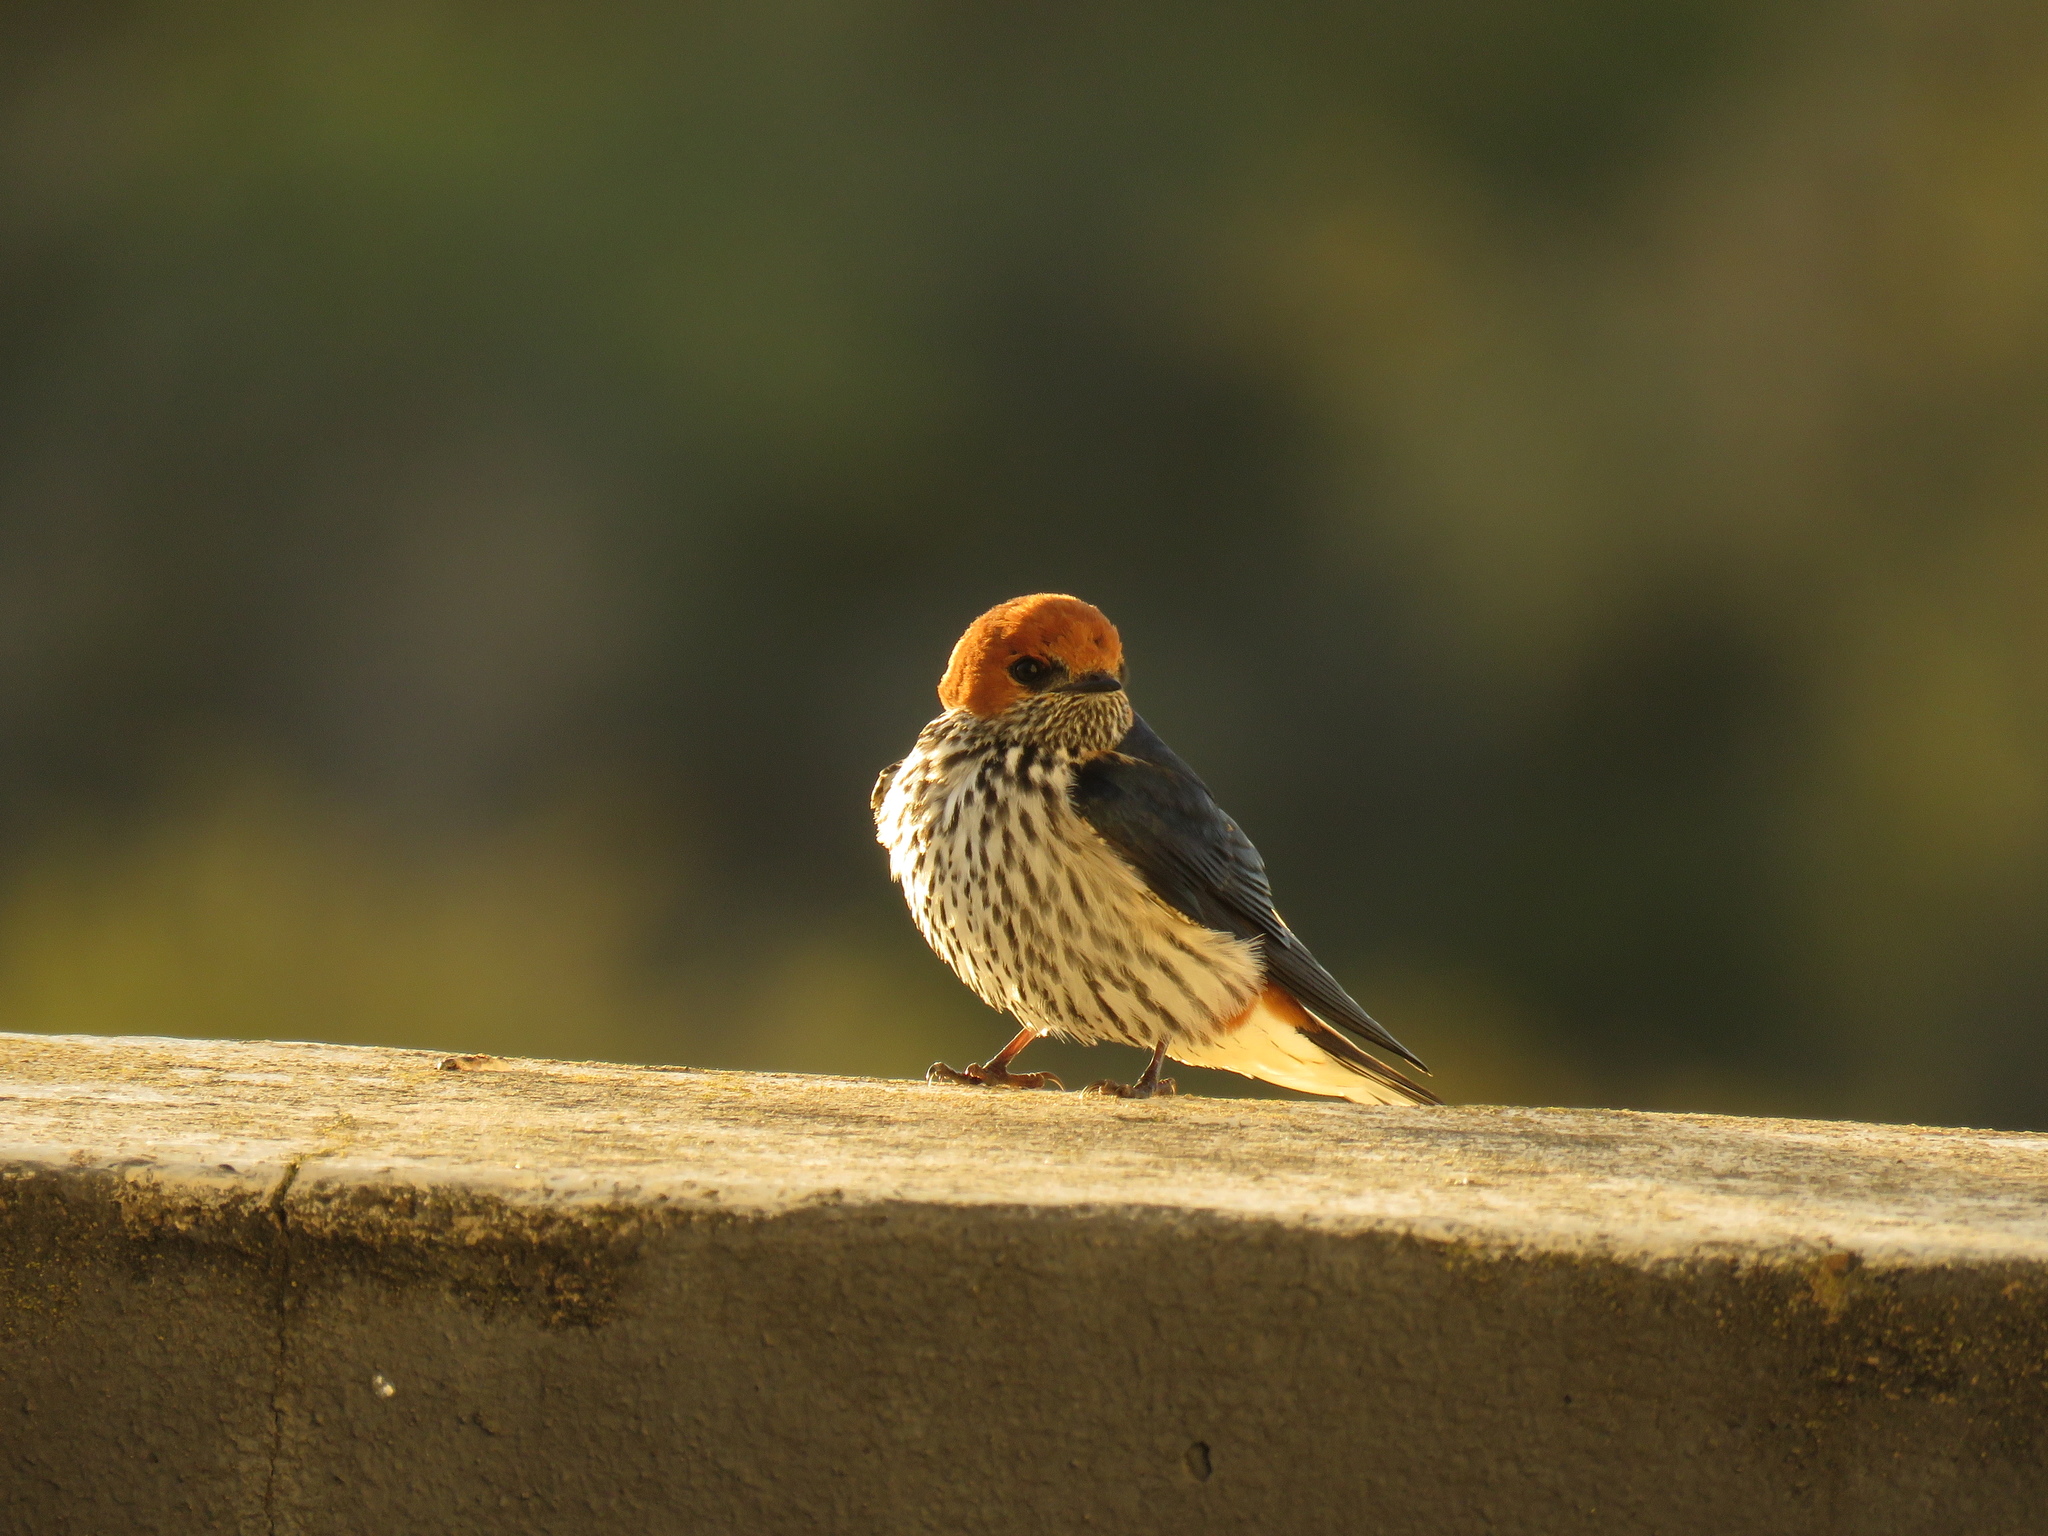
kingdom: Animalia
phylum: Chordata
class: Aves
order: Passeriformes
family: Hirundinidae
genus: Cecropis
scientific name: Cecropis abyssinica
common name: Lesser striped-swallow
